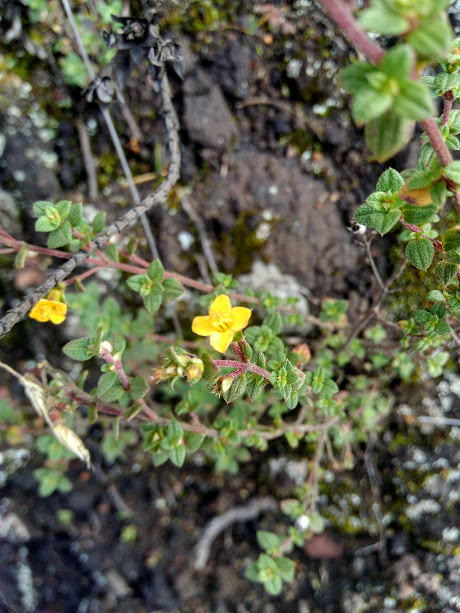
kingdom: Plantae
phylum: Tracheophyta
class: Magnoliopsida
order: Myrtales
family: Melastomataceae
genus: Chaetolepis
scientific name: Chaetolepis microphylla
